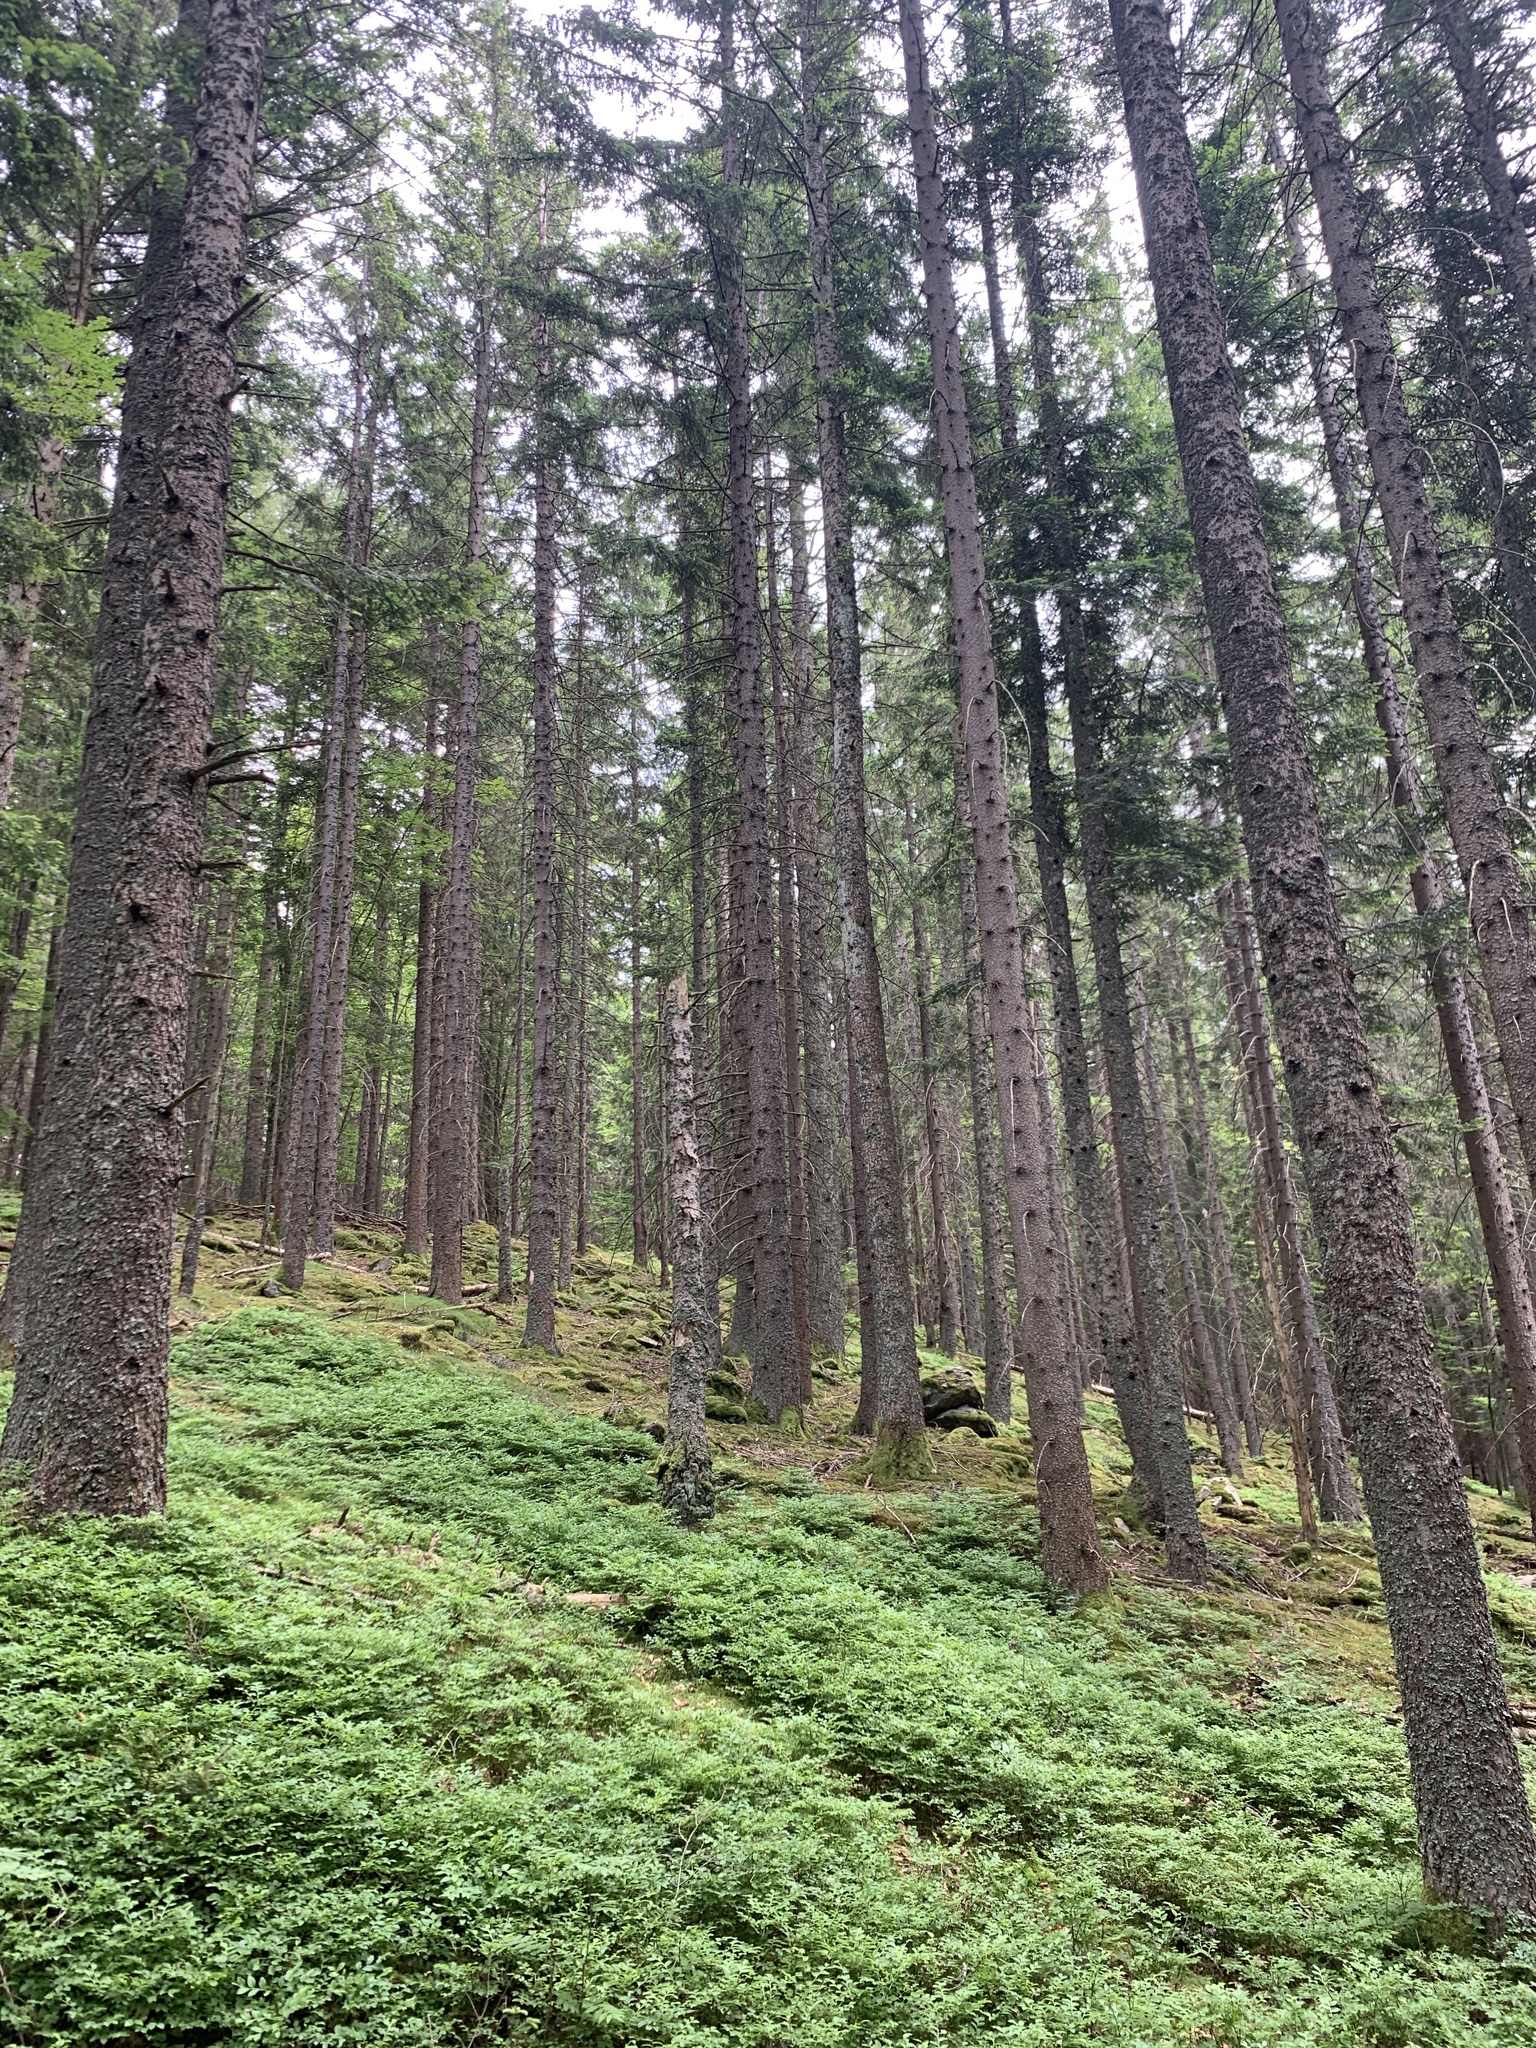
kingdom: Plantae
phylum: Tracheophyta
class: Pinopsida
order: Pinales
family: Pinaceae
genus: Abies
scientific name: Abies alba
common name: Silver fir
